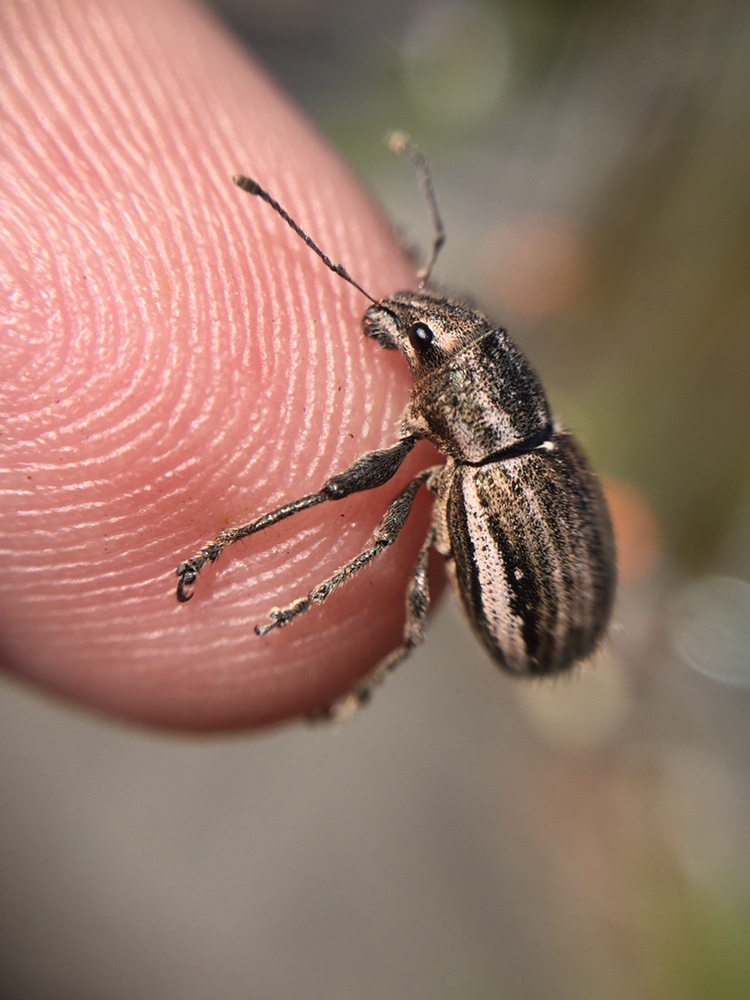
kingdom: Animalia
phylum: Arthropoda
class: Insecta
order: Coleoptera
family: Curculionidae
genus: Naupactus
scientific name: Naupactus leucoloma
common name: Whitefringed beetle
